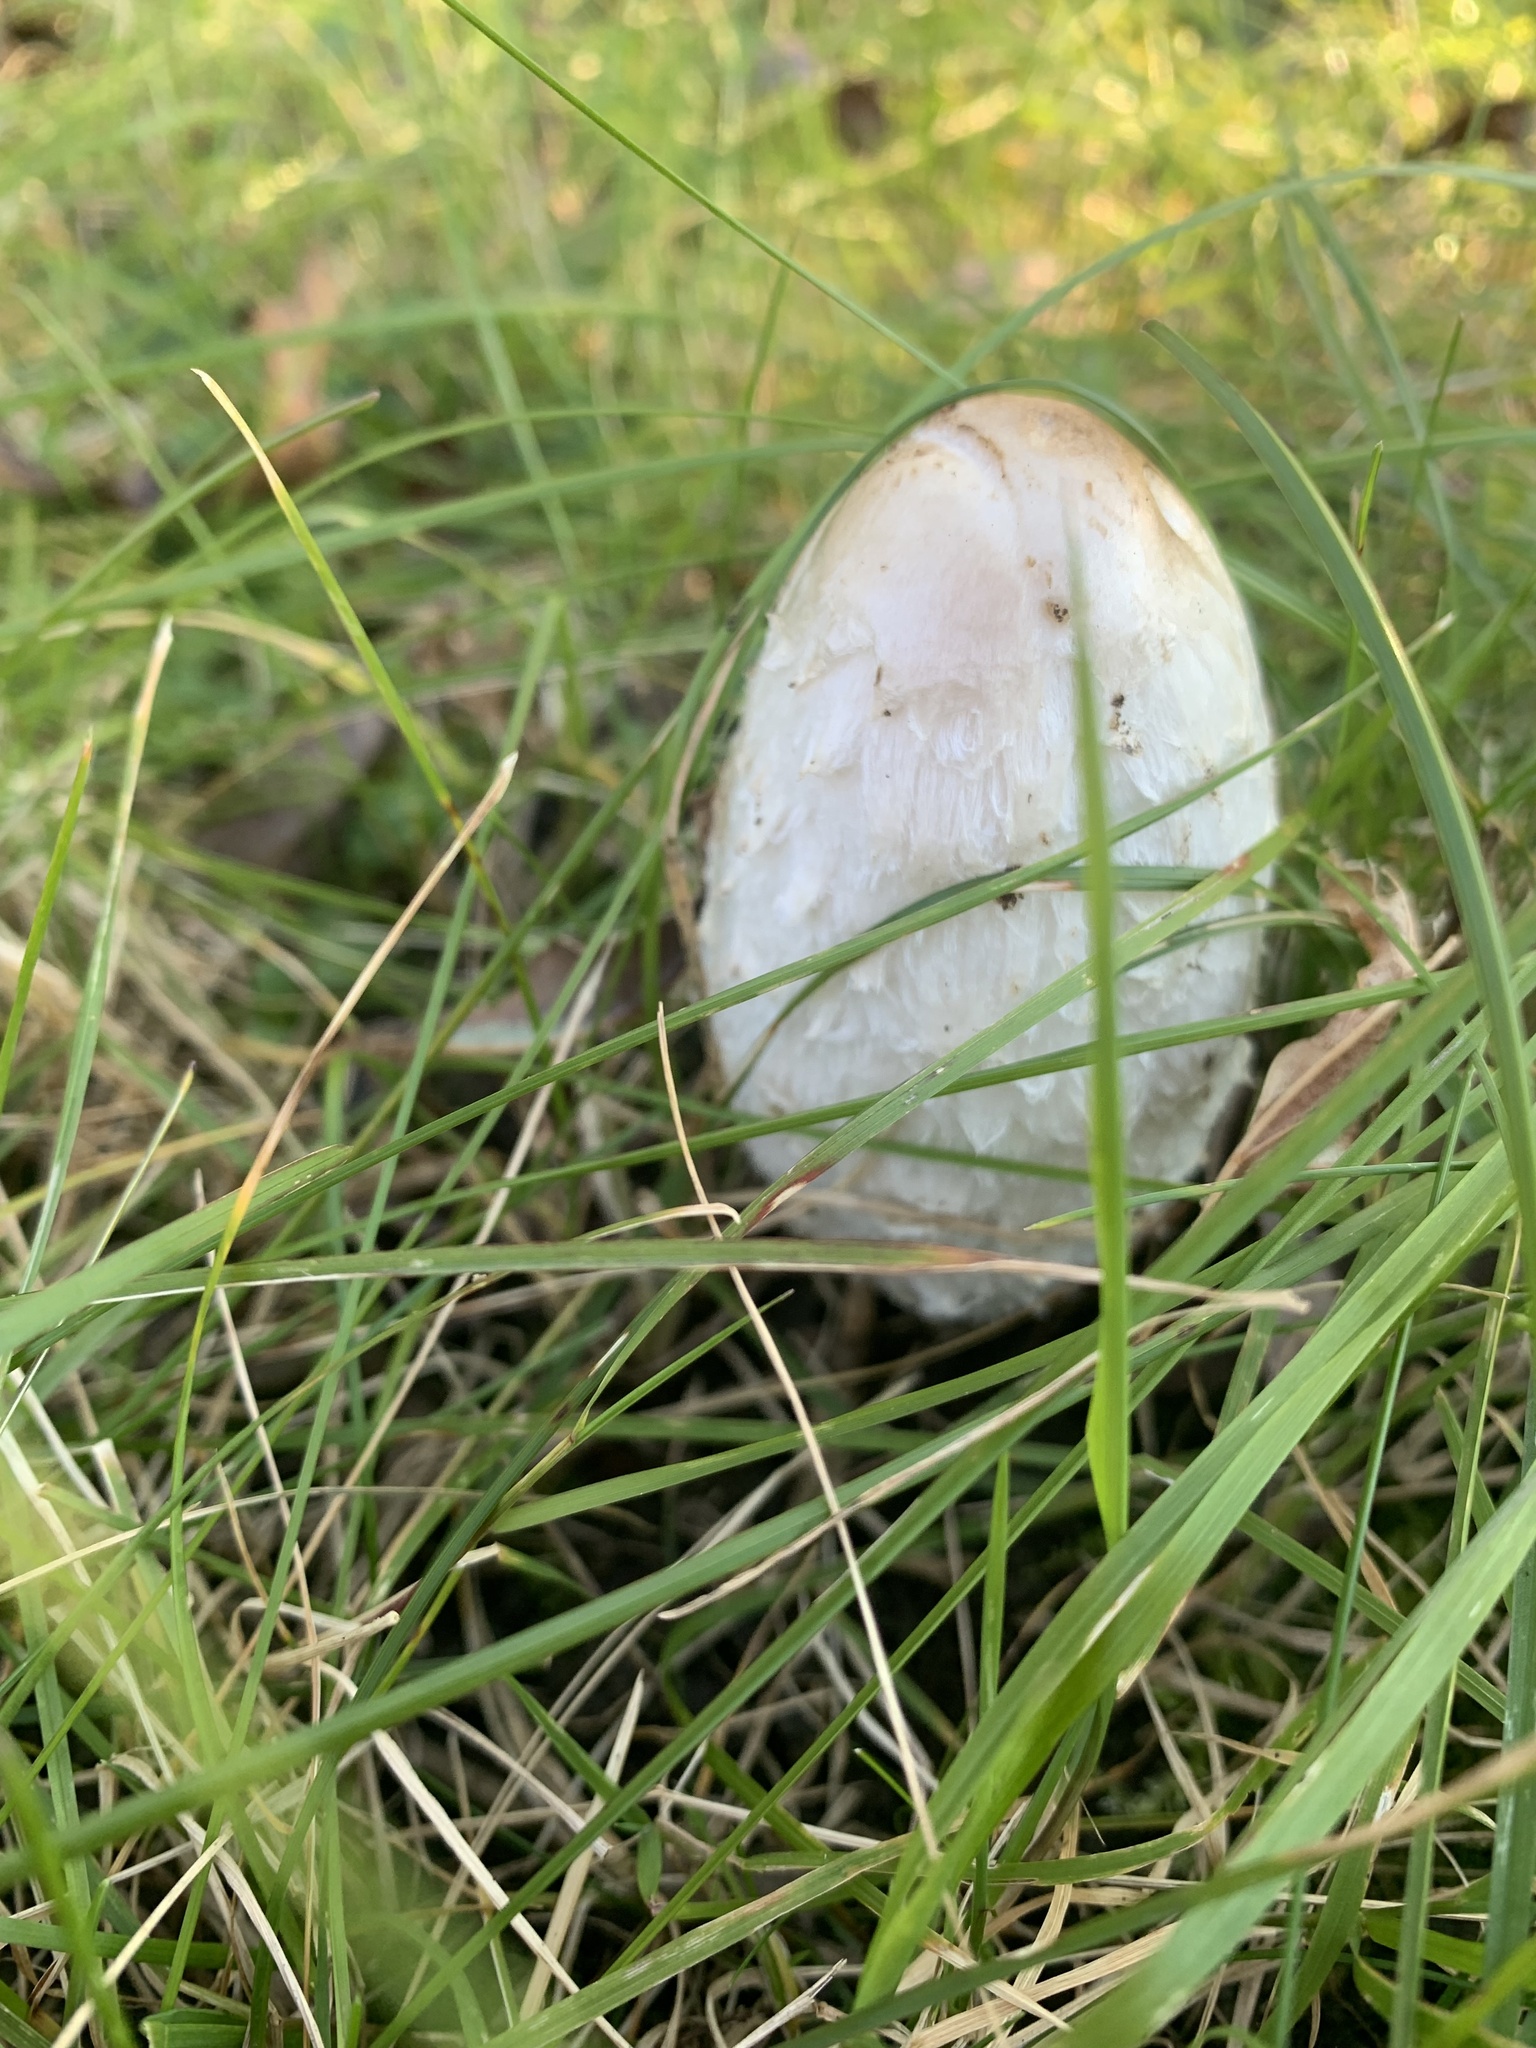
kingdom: Fungi
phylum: Basidiomycota
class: Agaricomycetes
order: Agaricales
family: Agaricaceae
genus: Coprinus
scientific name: Coprinus comatus
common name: Lawyer's wig
